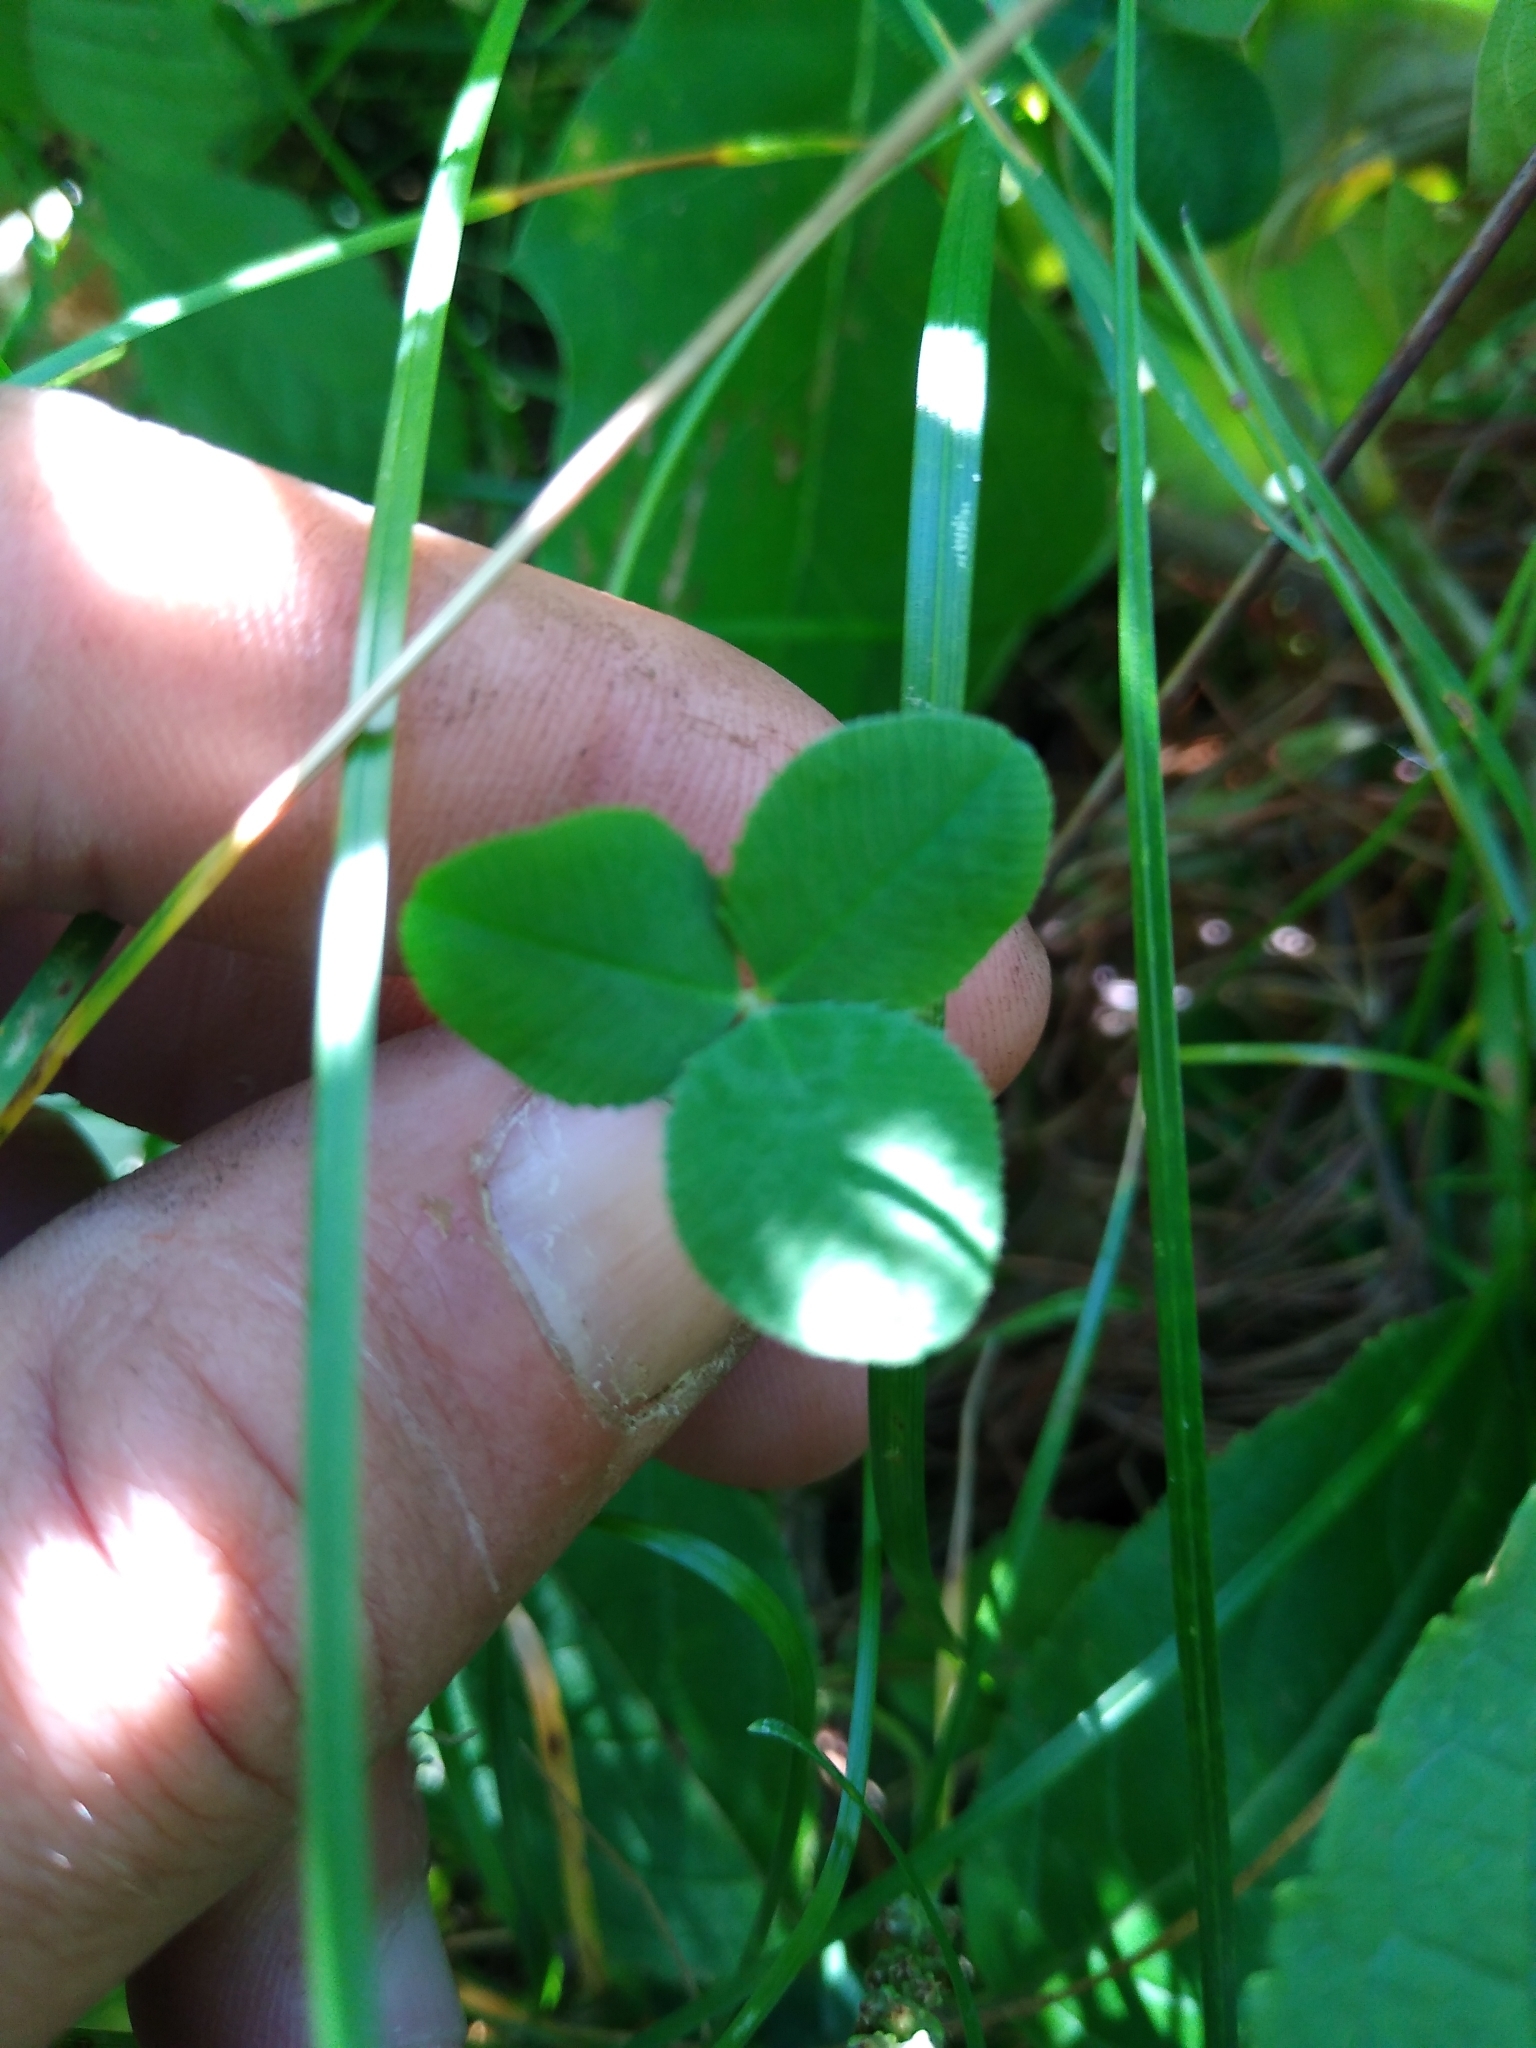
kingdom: Plantae
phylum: Tracheophyta
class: Magnoliopsida
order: Fabales
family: Fabaceae
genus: Trifolium
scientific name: Trifolium repens
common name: White clover
